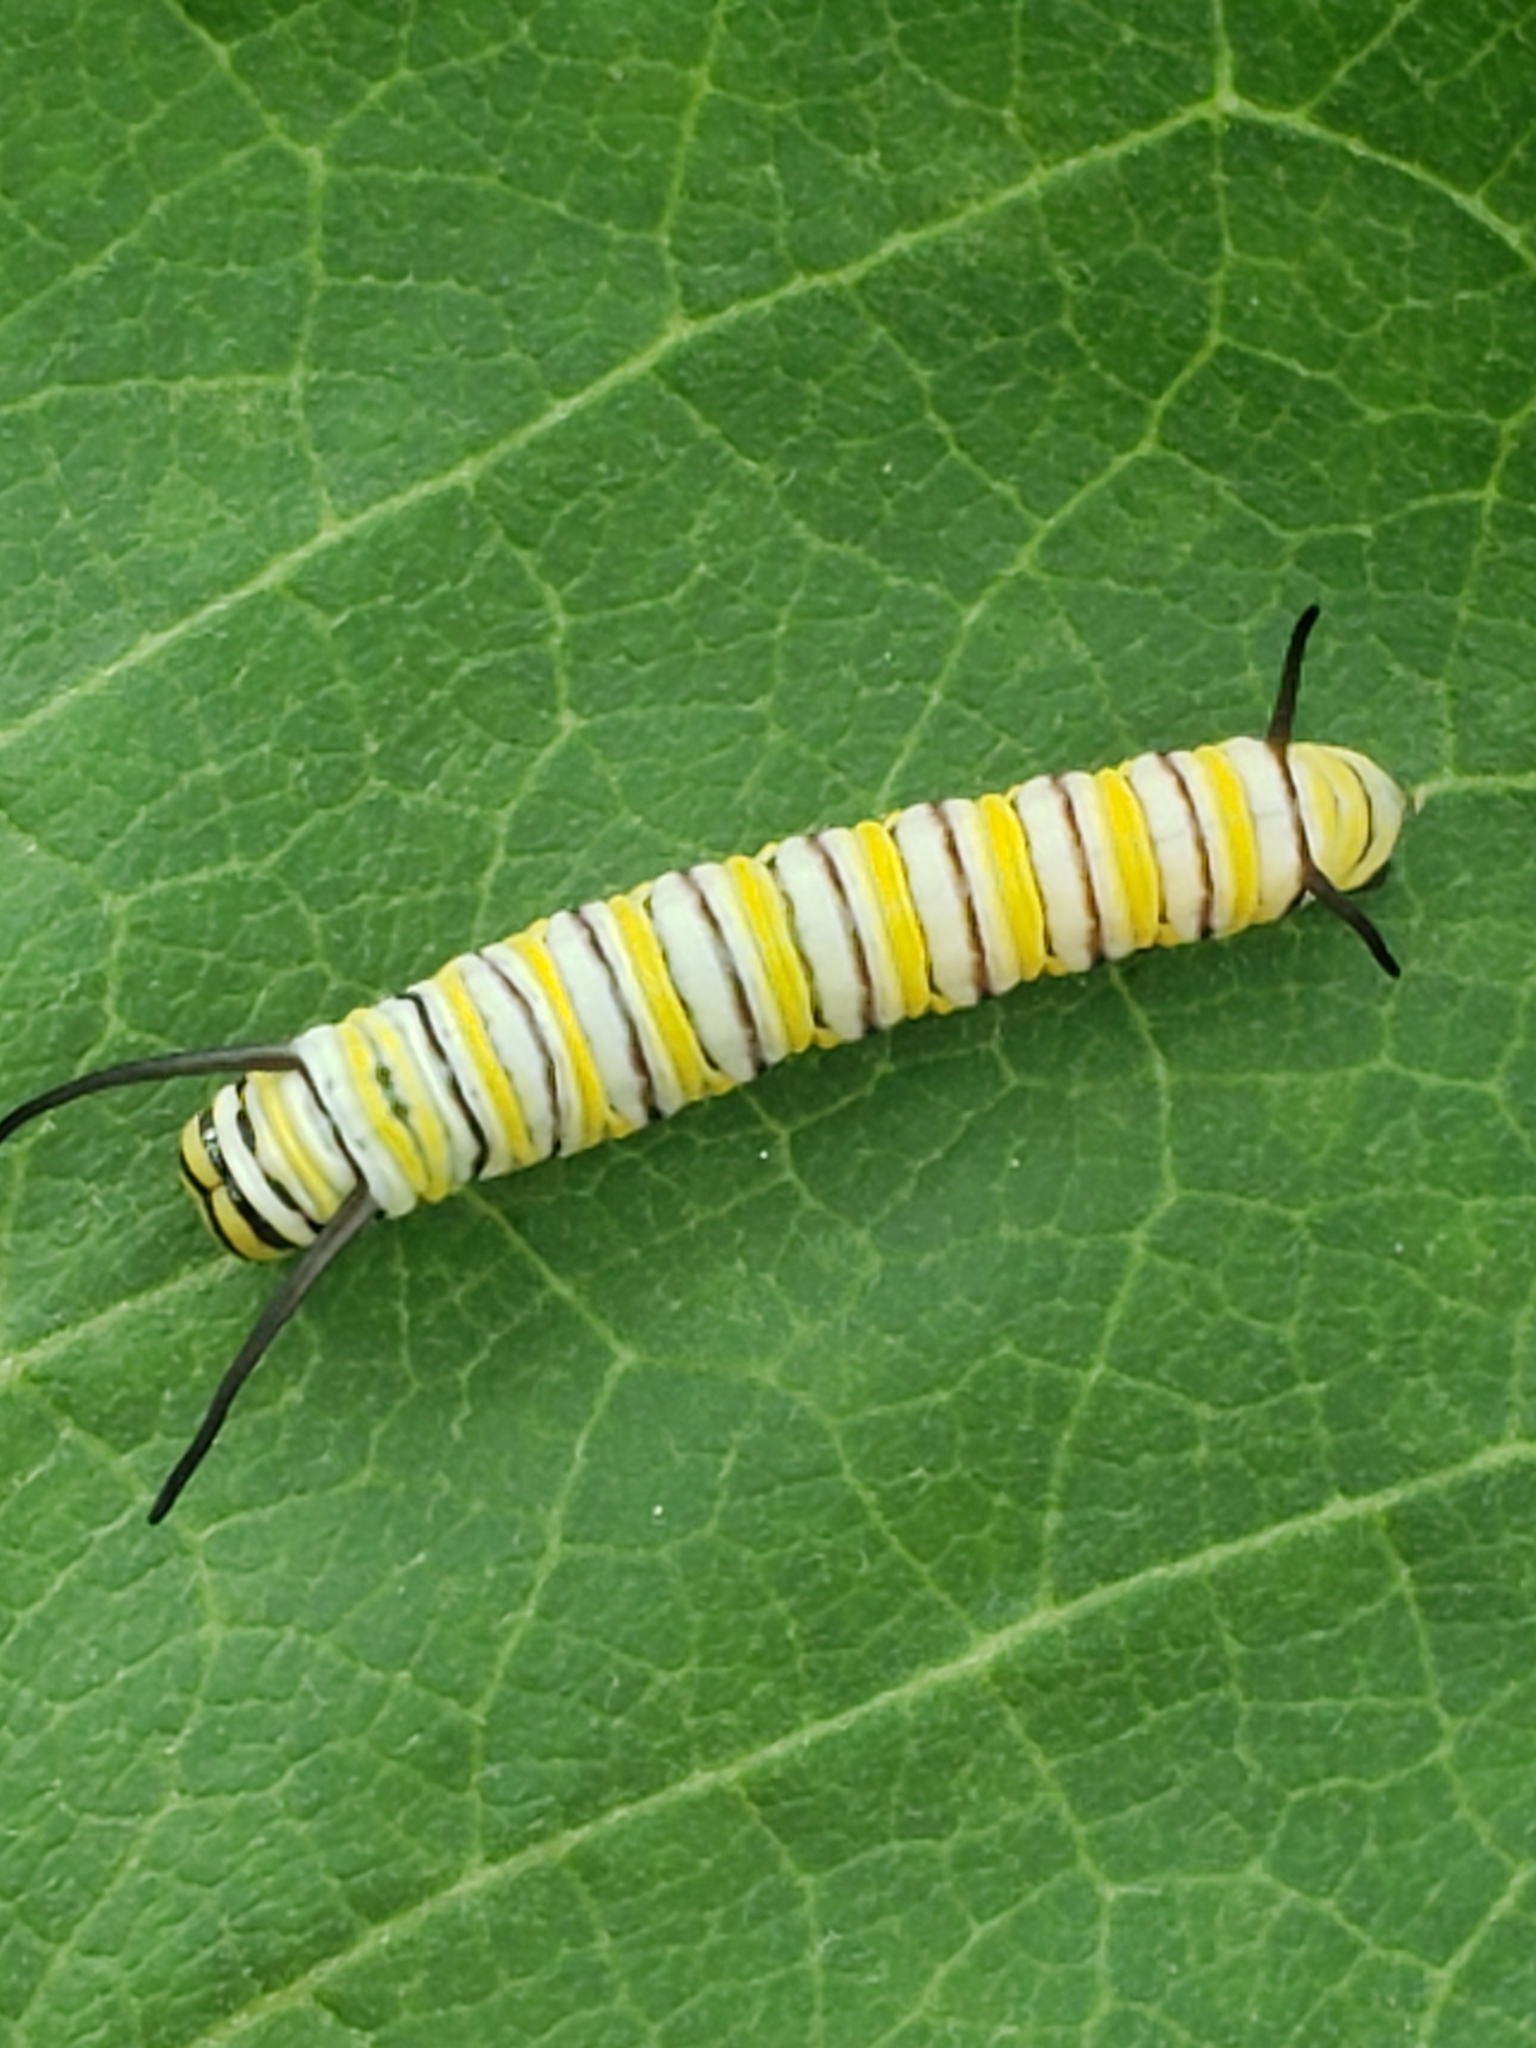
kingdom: Animalia
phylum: Arthropoda
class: Insecta
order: Lepidoptera
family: Nymphalidae
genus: Danaus
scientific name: Danaus plexippus
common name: Monarch
